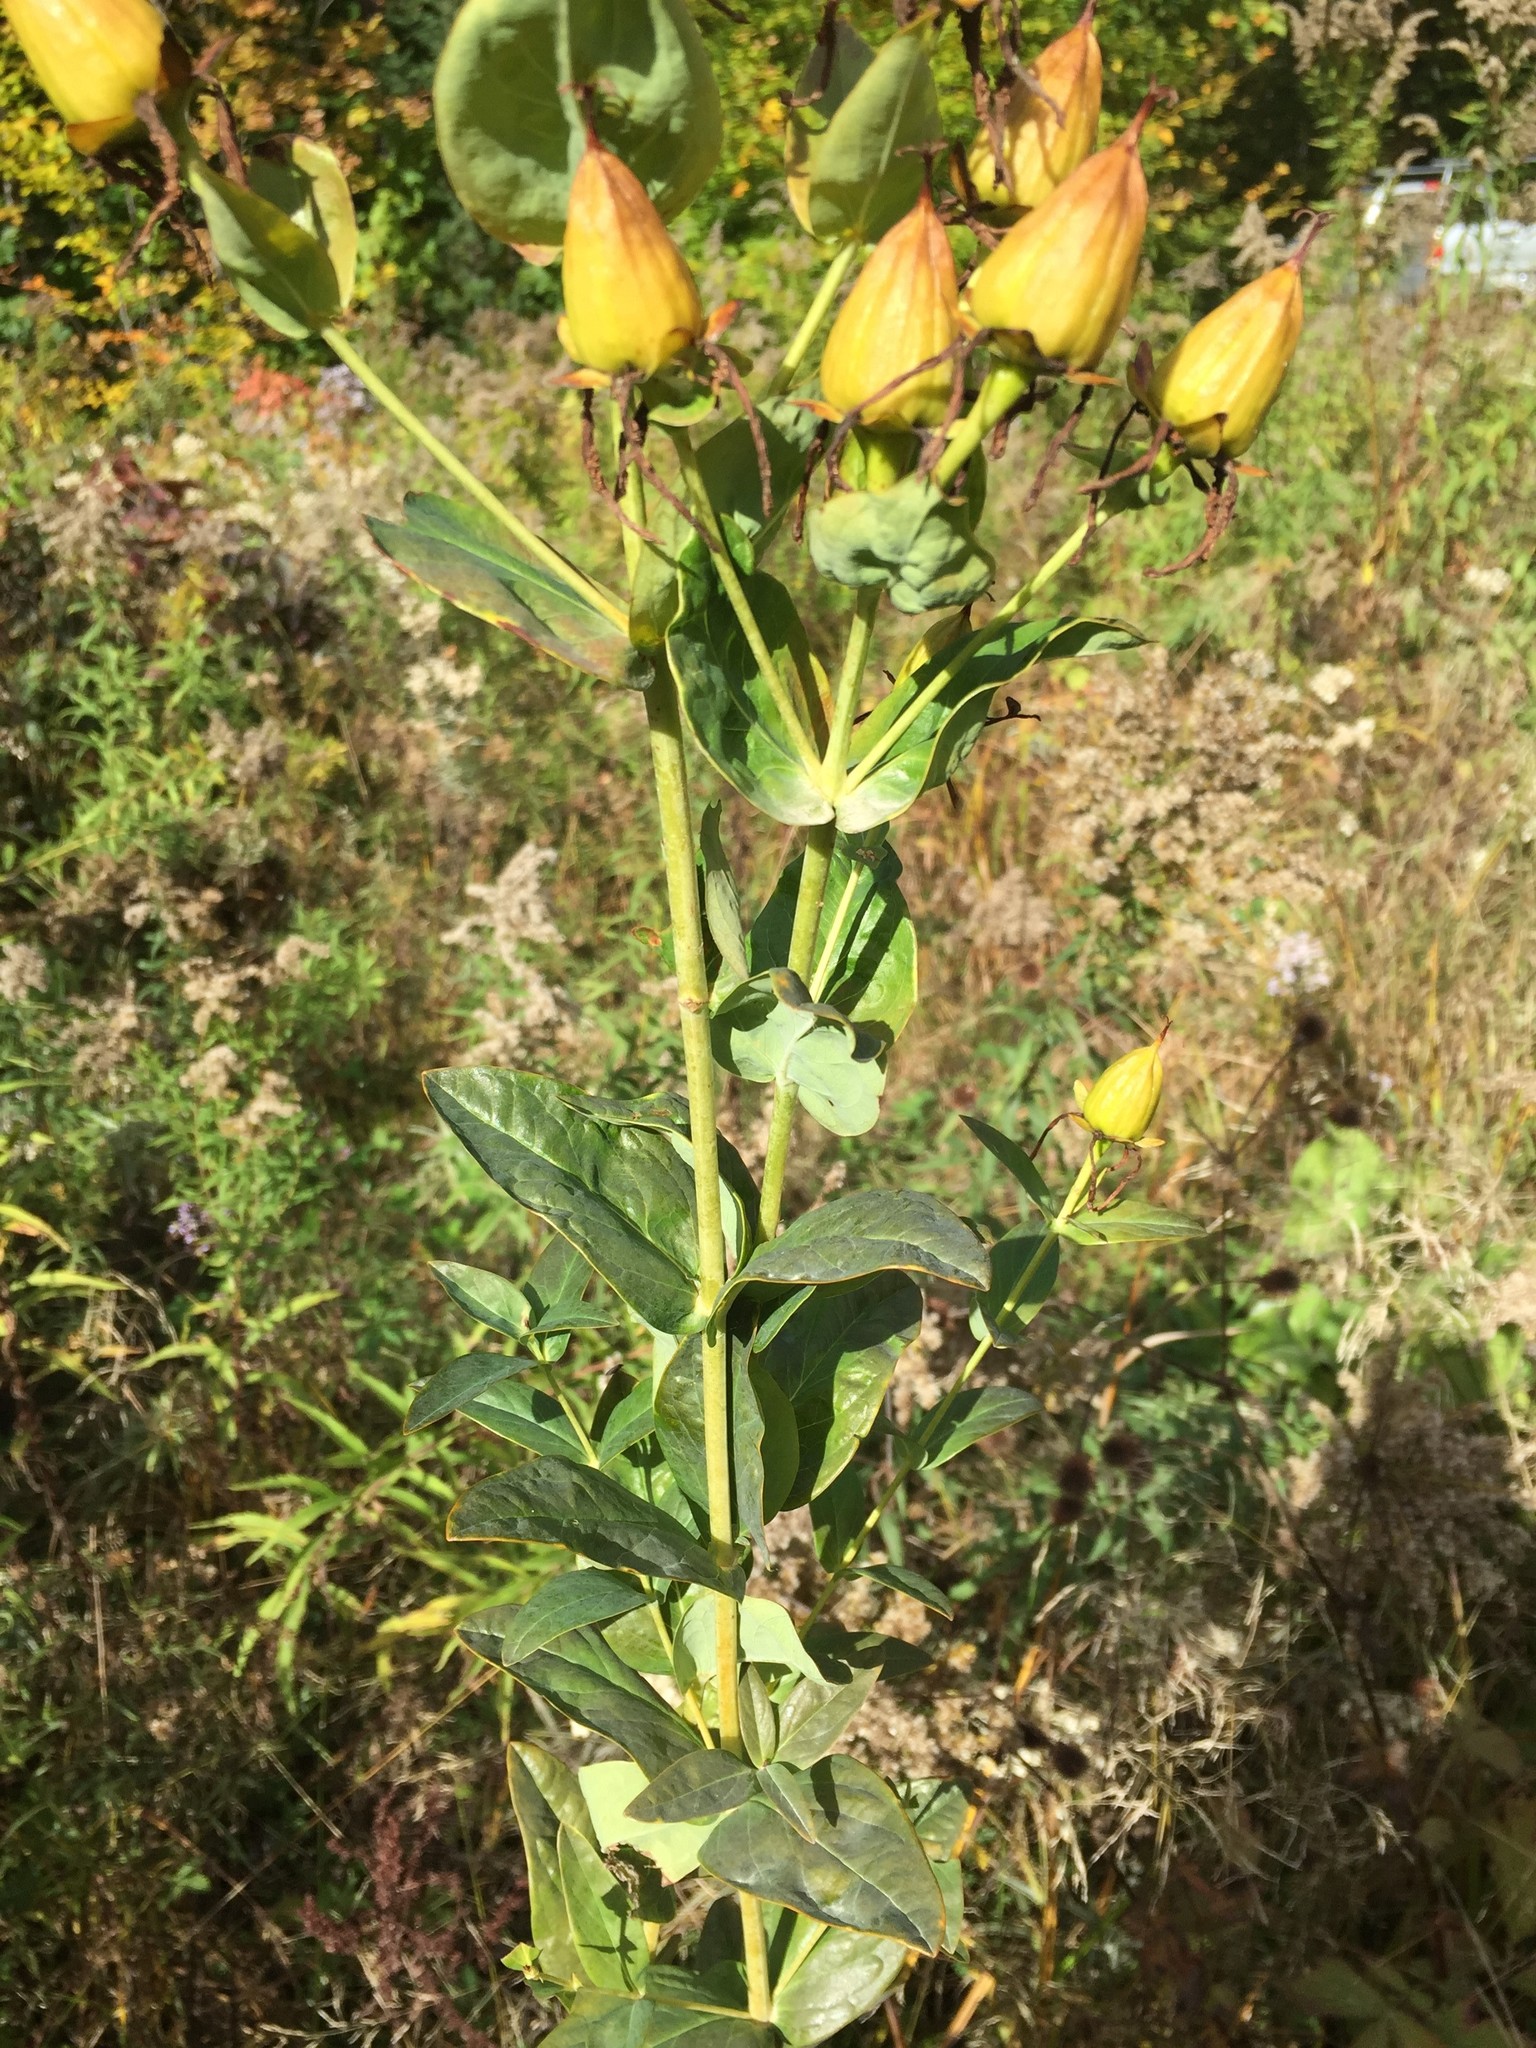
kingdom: Plantae
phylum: Tracheophyta
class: Magnoliopsida
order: Malpighiales
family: Hypericaceae
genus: Hypericum
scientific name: Hypericum ascyron
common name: Giant st. john's-wort
